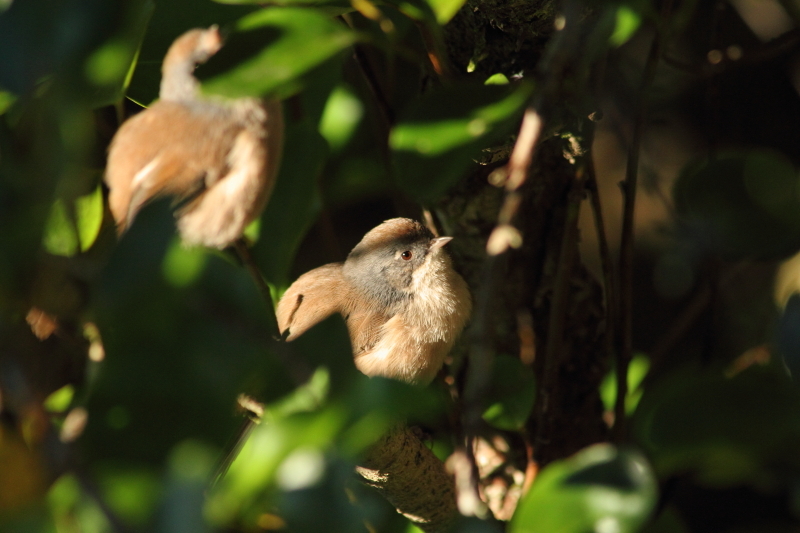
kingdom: Animalia
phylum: Chordata
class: Aves
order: Passeriformes
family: Acanthizidae
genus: Finschia
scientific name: Finschia novaeseelandiae
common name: Pipipi
